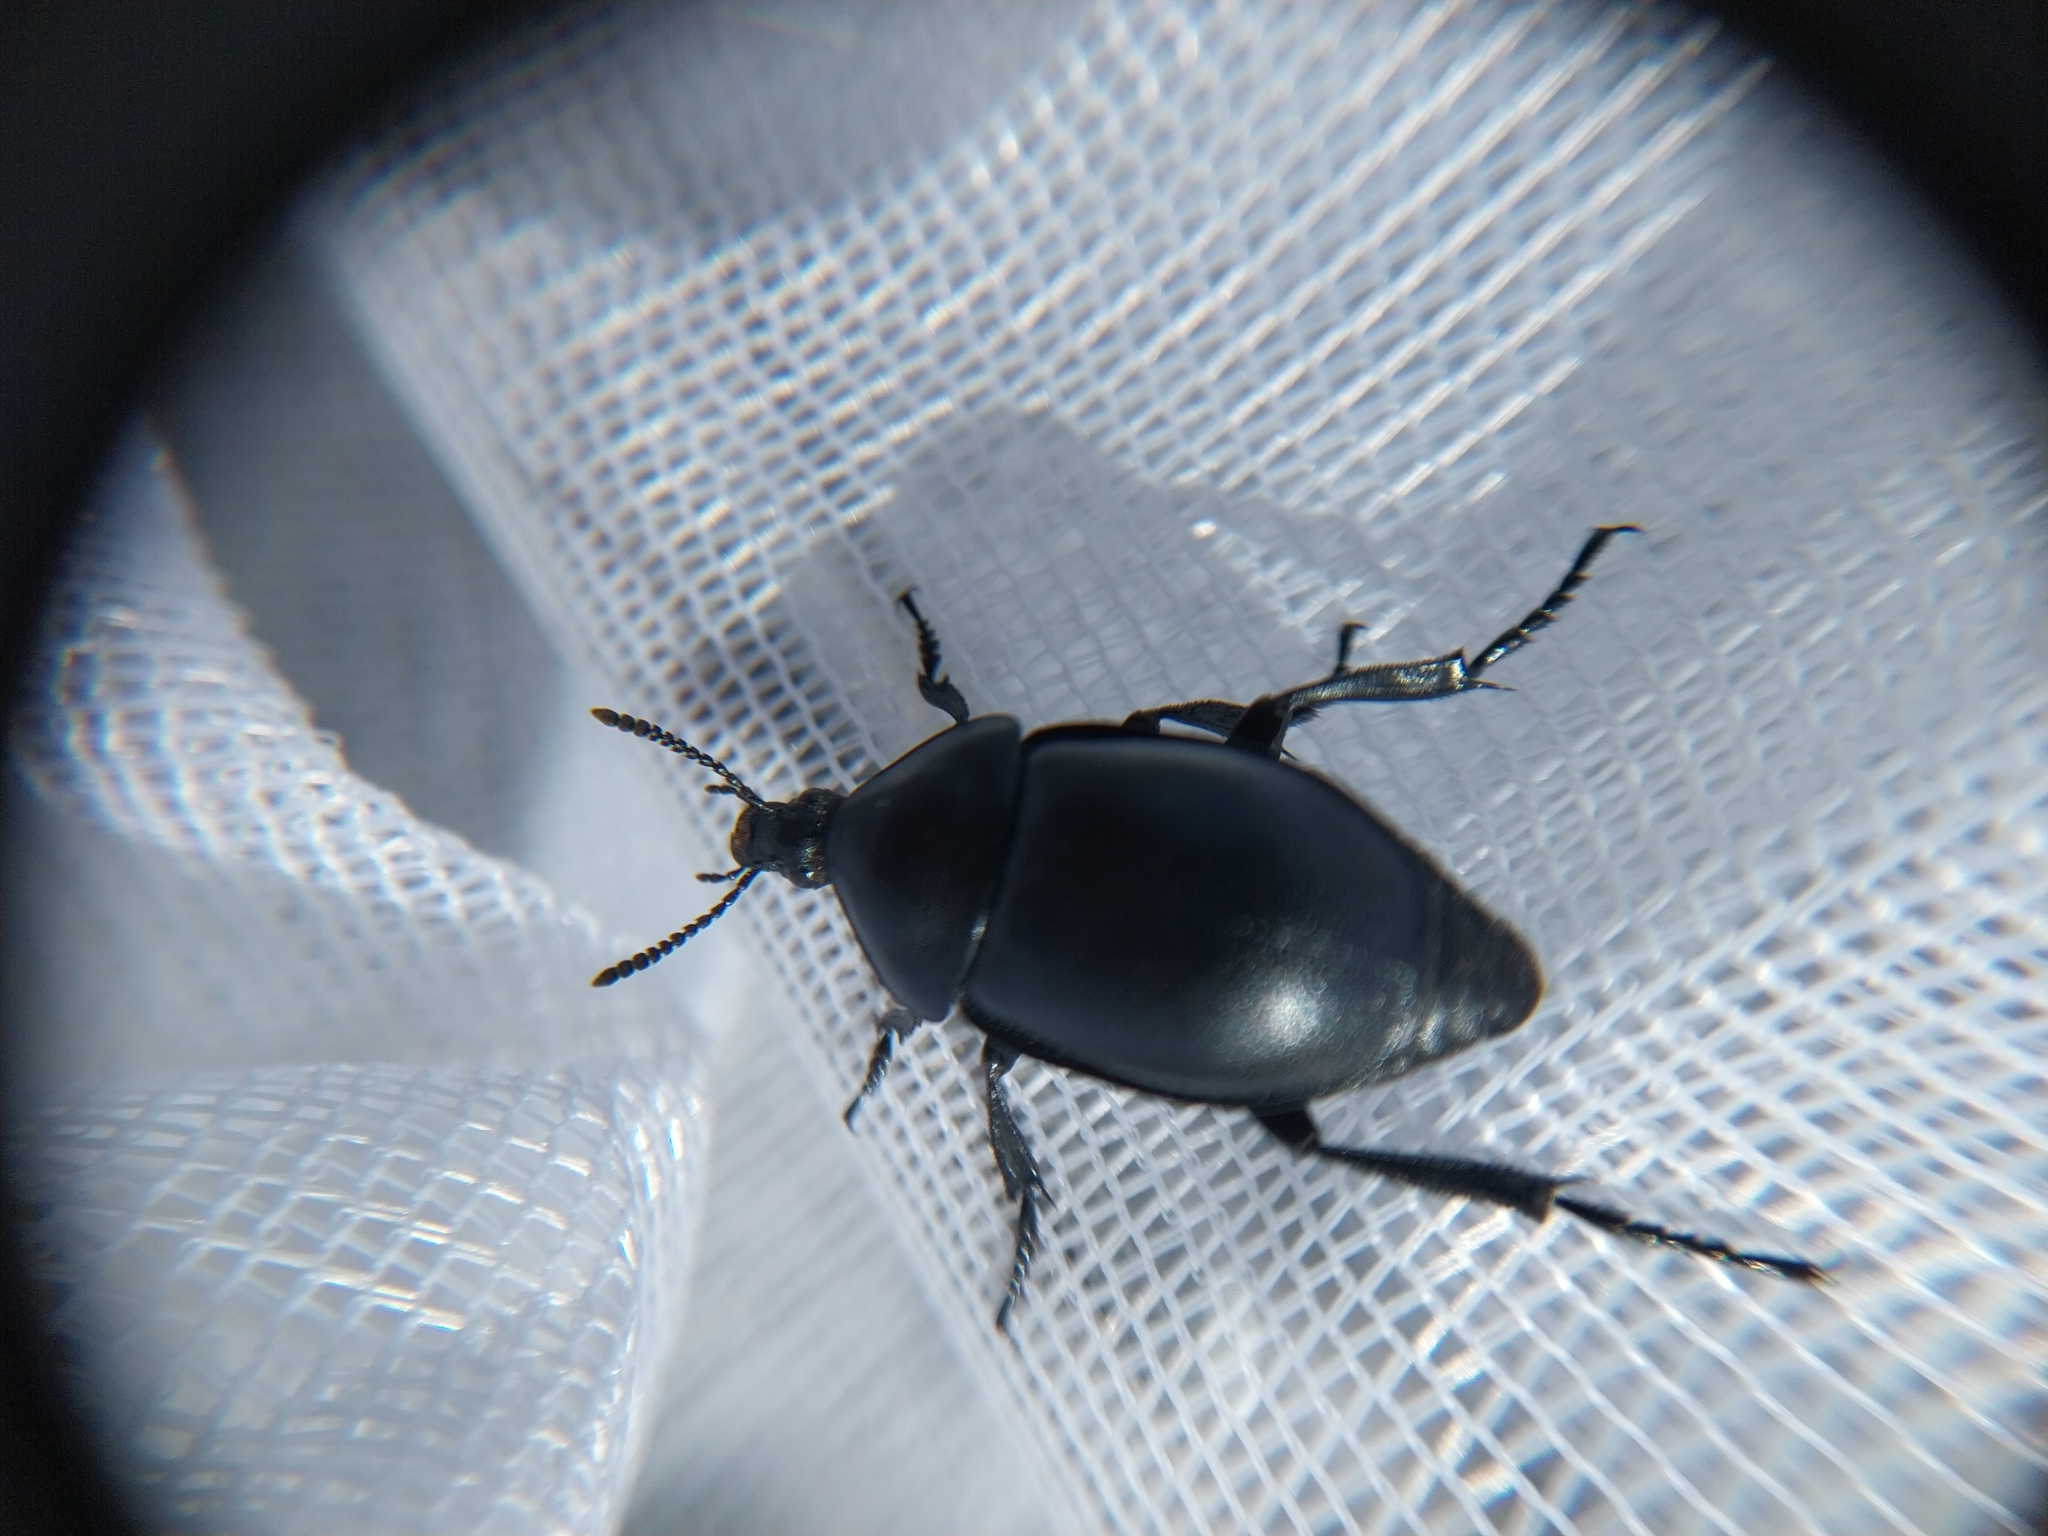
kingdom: Animalia
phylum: Arthropoda
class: Insecta
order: Coleoptera
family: Staphylinidae
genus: Silpha
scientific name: Silpha laevigata
